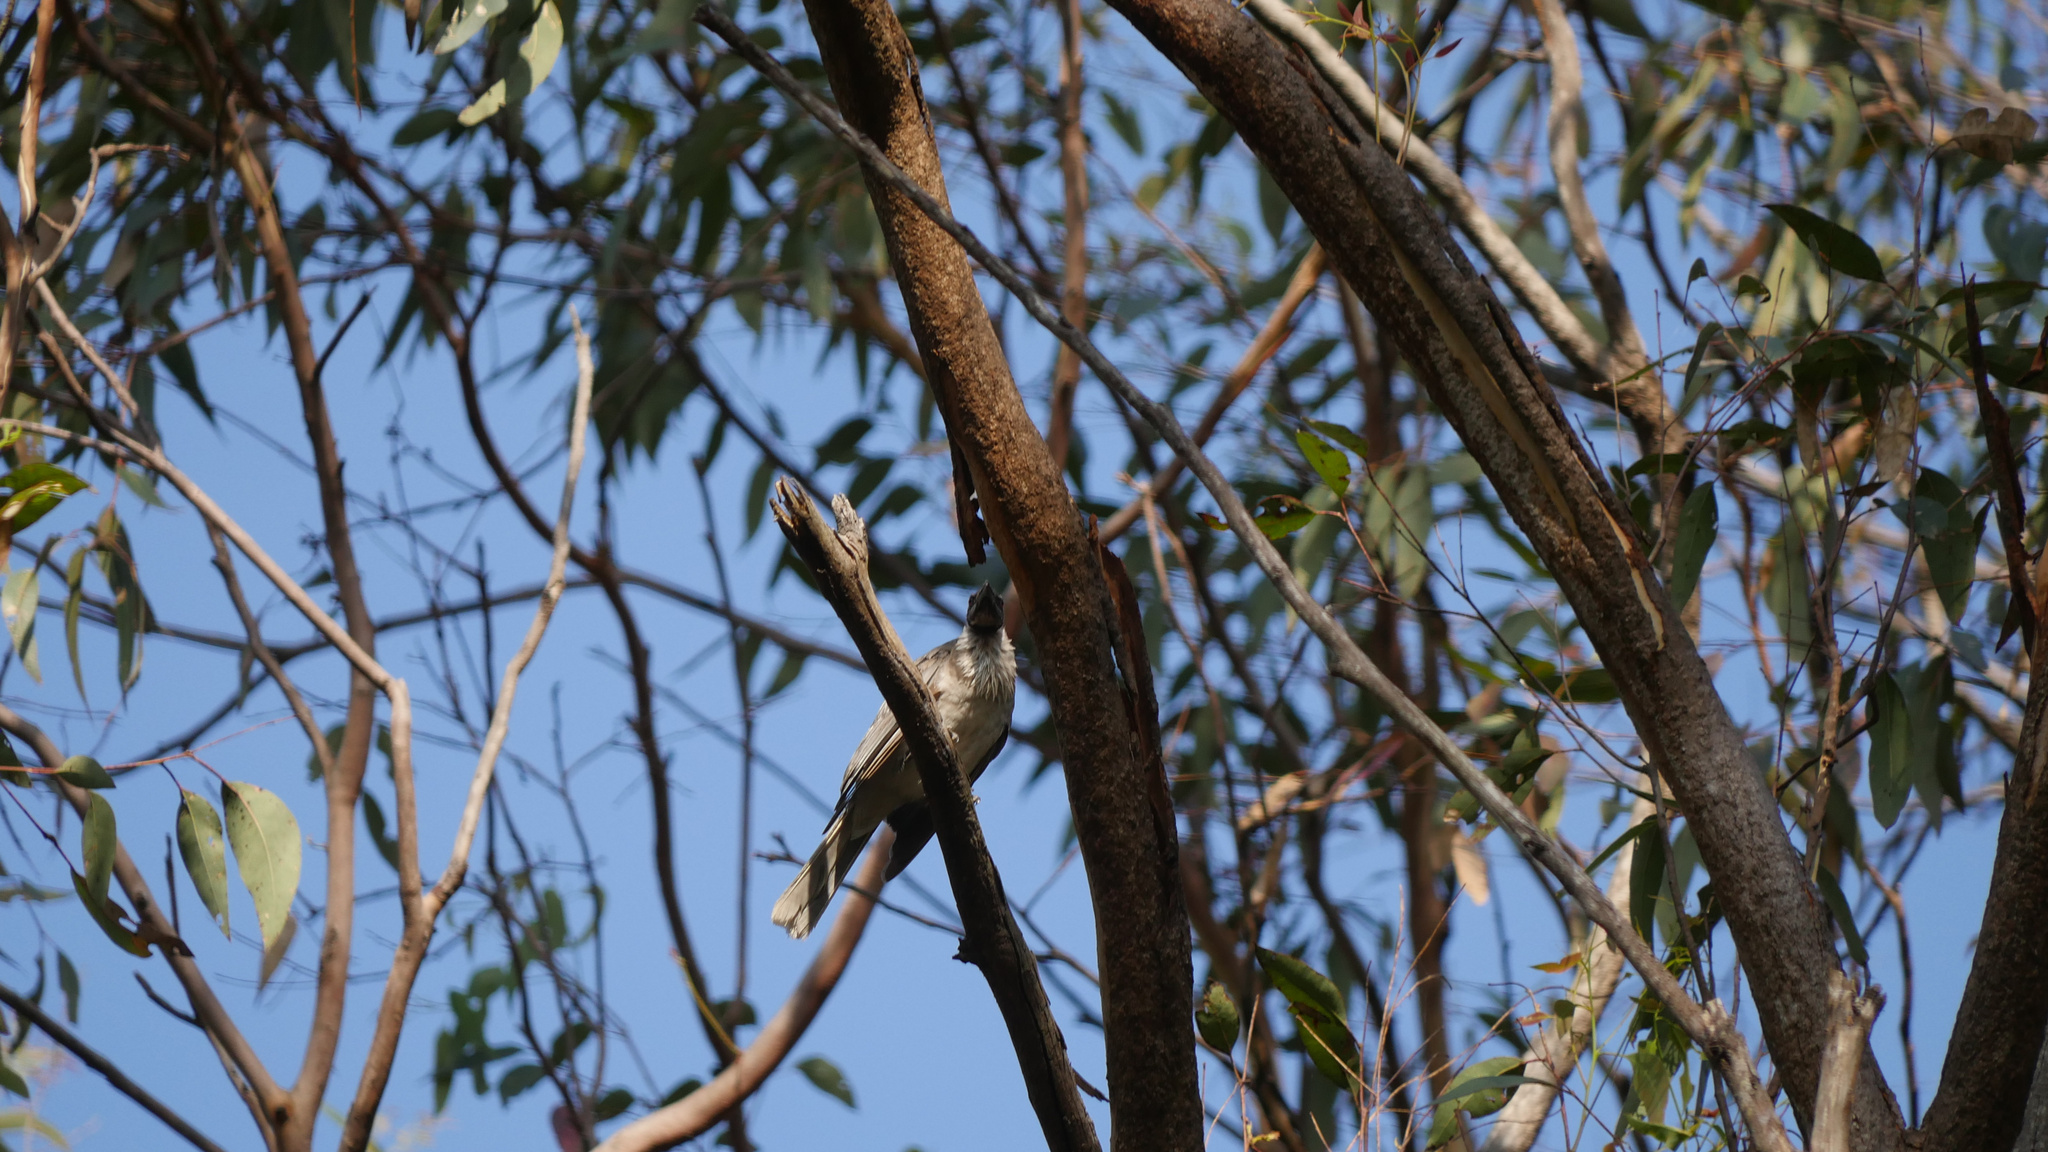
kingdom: Animalia
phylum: Chordata
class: Aves
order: Passeriformes
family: Meliphagidae
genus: Philemon
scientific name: Philemon corniculatus
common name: Noisy friarbird
